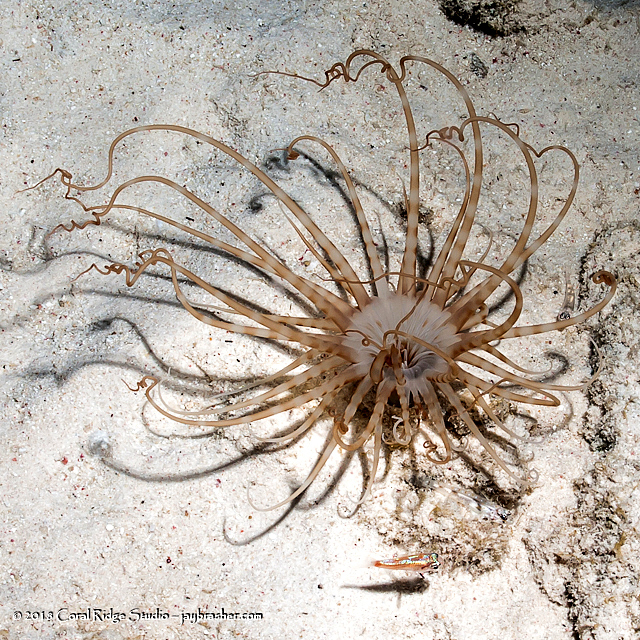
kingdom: Animalia
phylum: Cnidaria
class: Anthozoa
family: Arachnactidae
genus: Isarachnanthus
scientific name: Isarachnanthus nocturnus
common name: Banded tube-dwelling anemone
